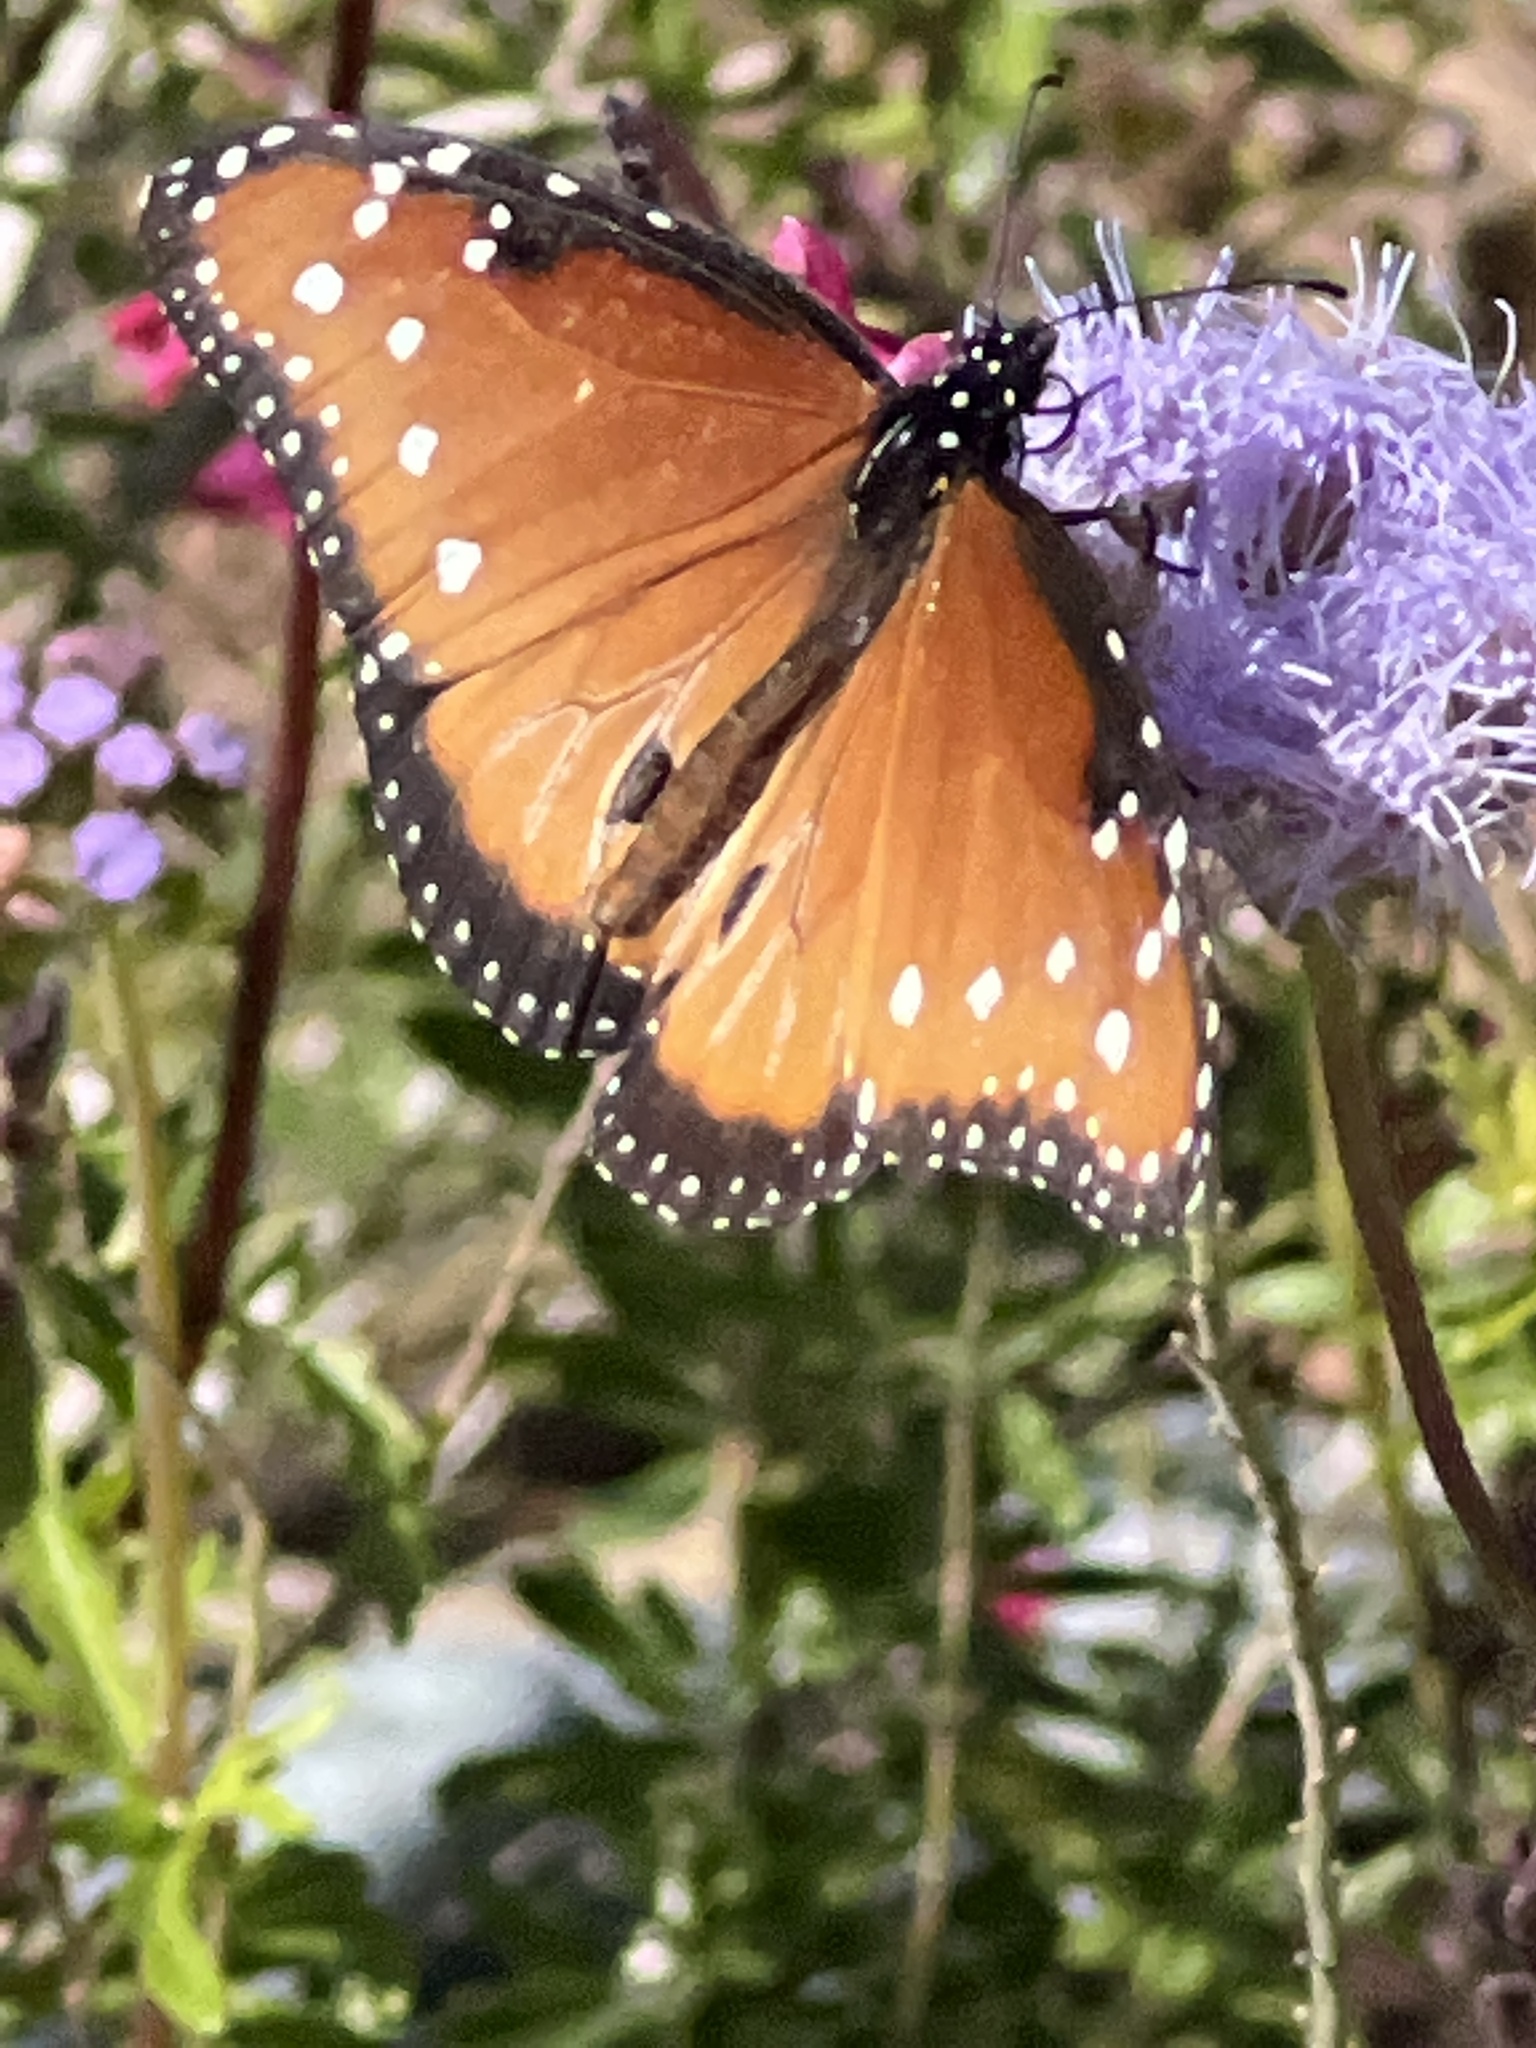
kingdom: Animalia
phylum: Arthropoda
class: Insecta
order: Lepidoptera
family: Nymphalidae
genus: Danaus
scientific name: Danaus gilippus
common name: Queen
